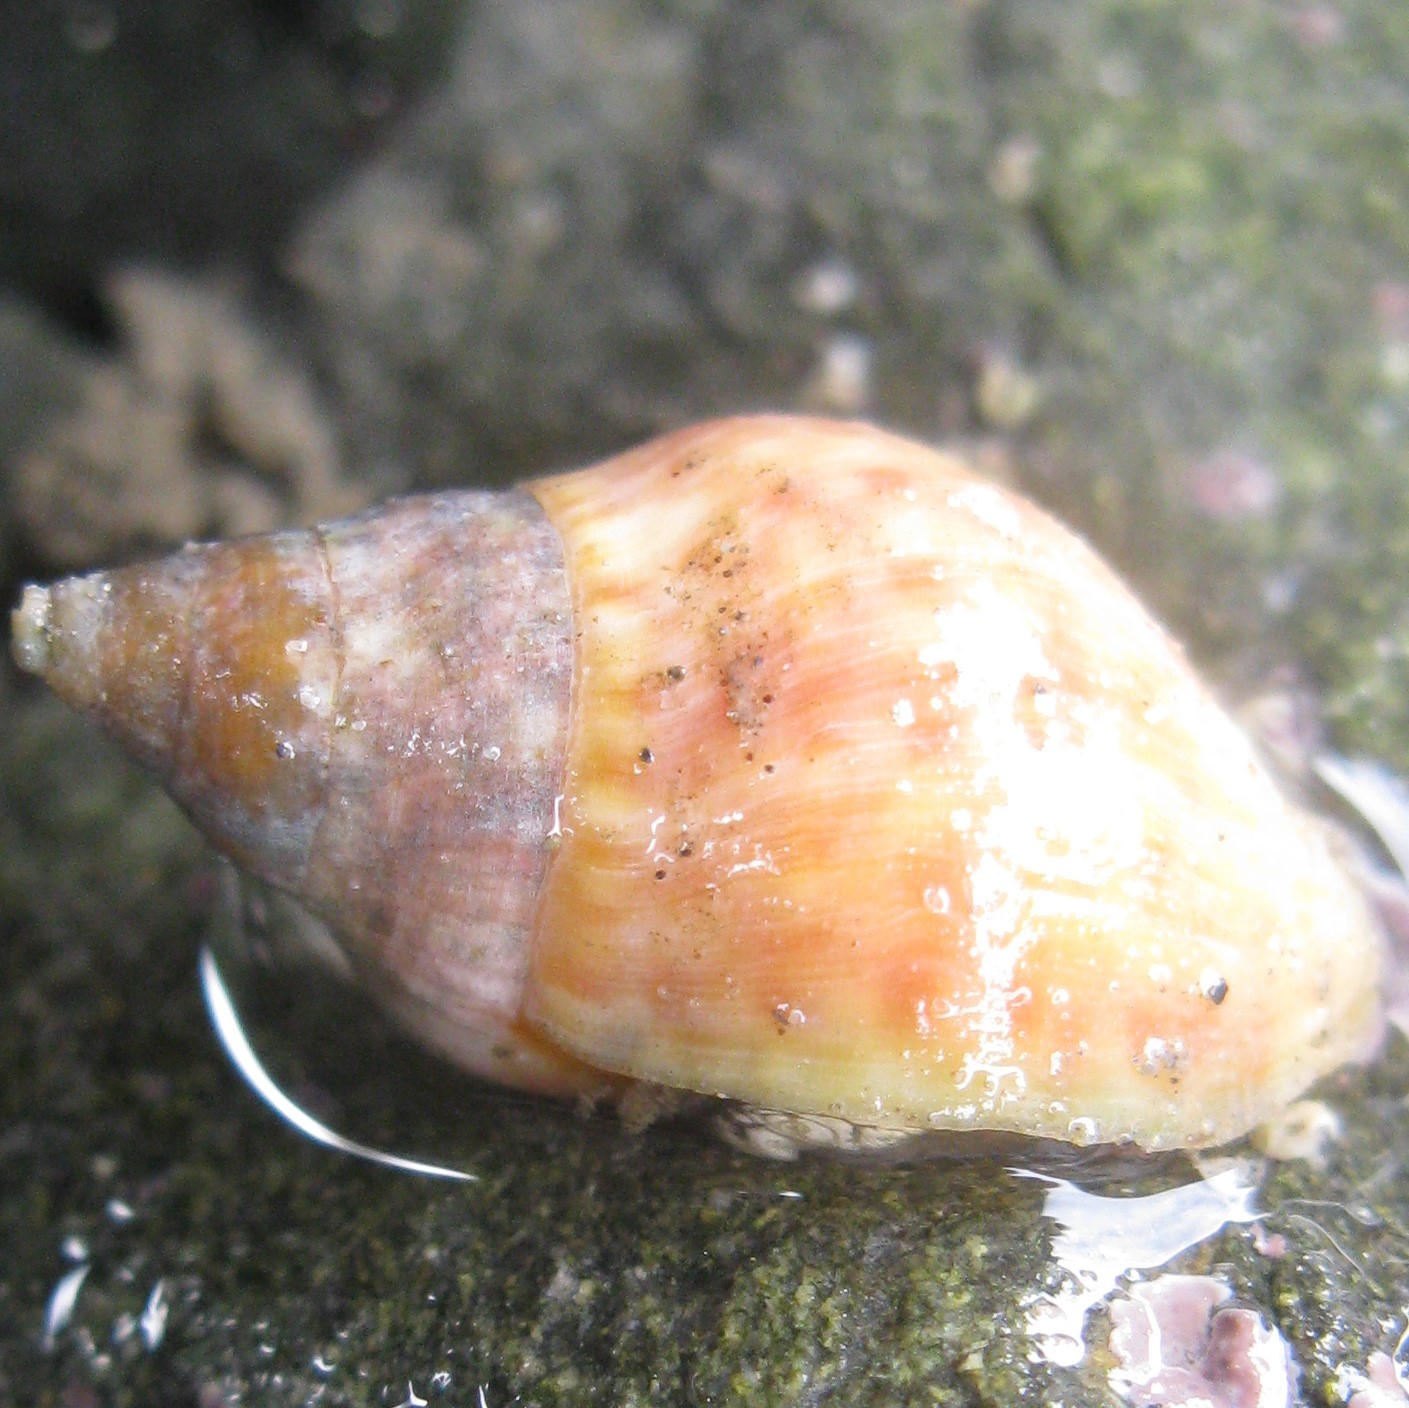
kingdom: Animalia
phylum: Mollusca
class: Gastropoda
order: Neogastropoda
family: Cominellidae
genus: Cominella
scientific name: Cominella maculosa
